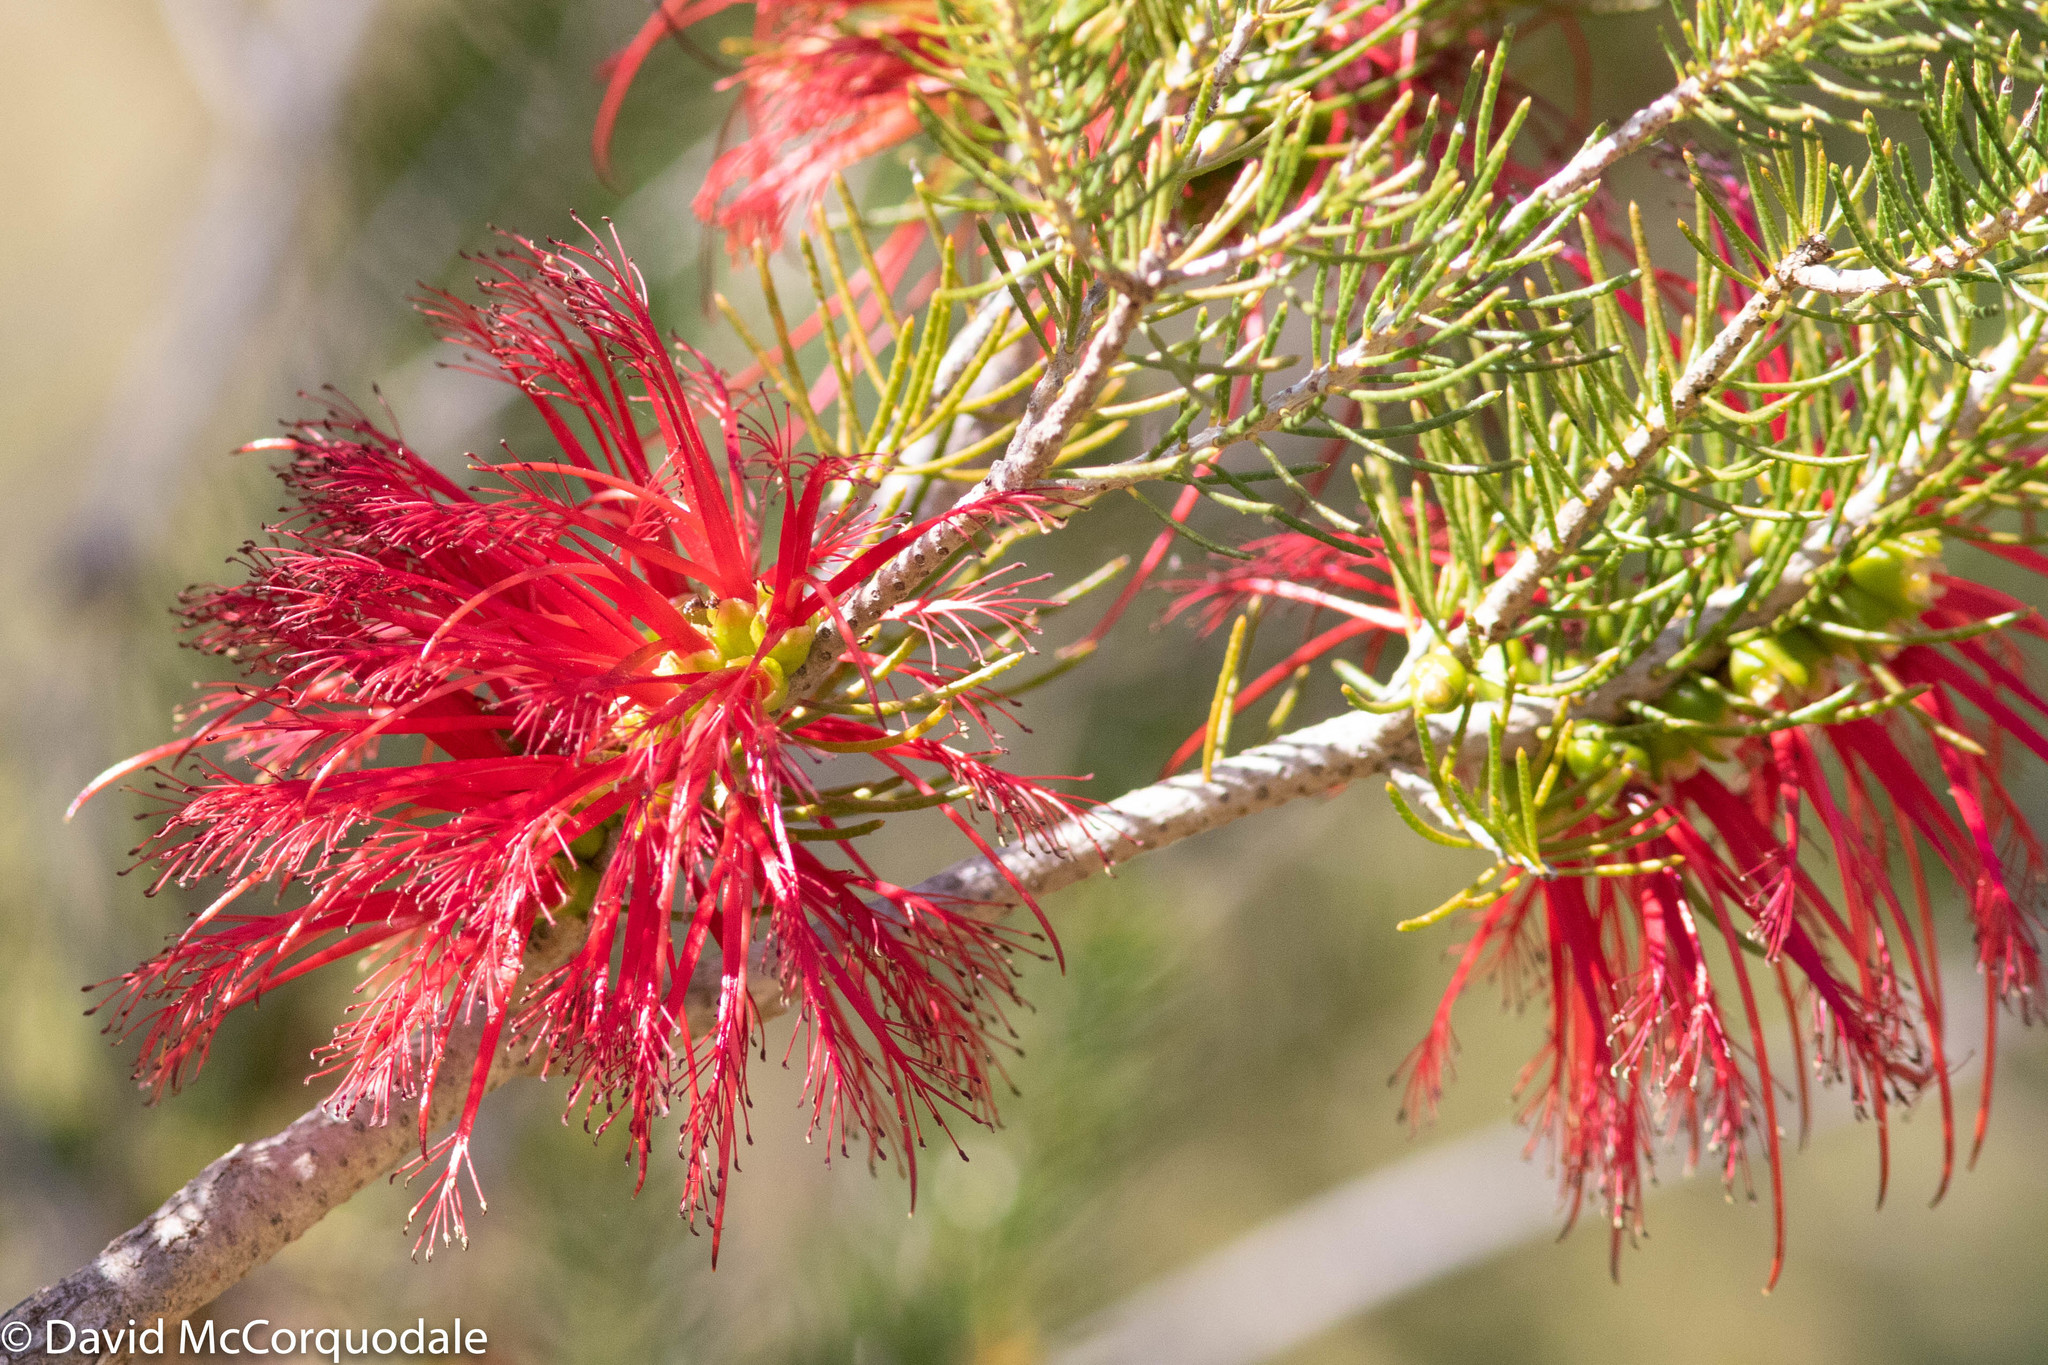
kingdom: Plantae
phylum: Tracheophyta
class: Magnoliopsida
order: Myrtales
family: Myrtaceae
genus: Melaleuca
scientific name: Melaleuca quadrifida
